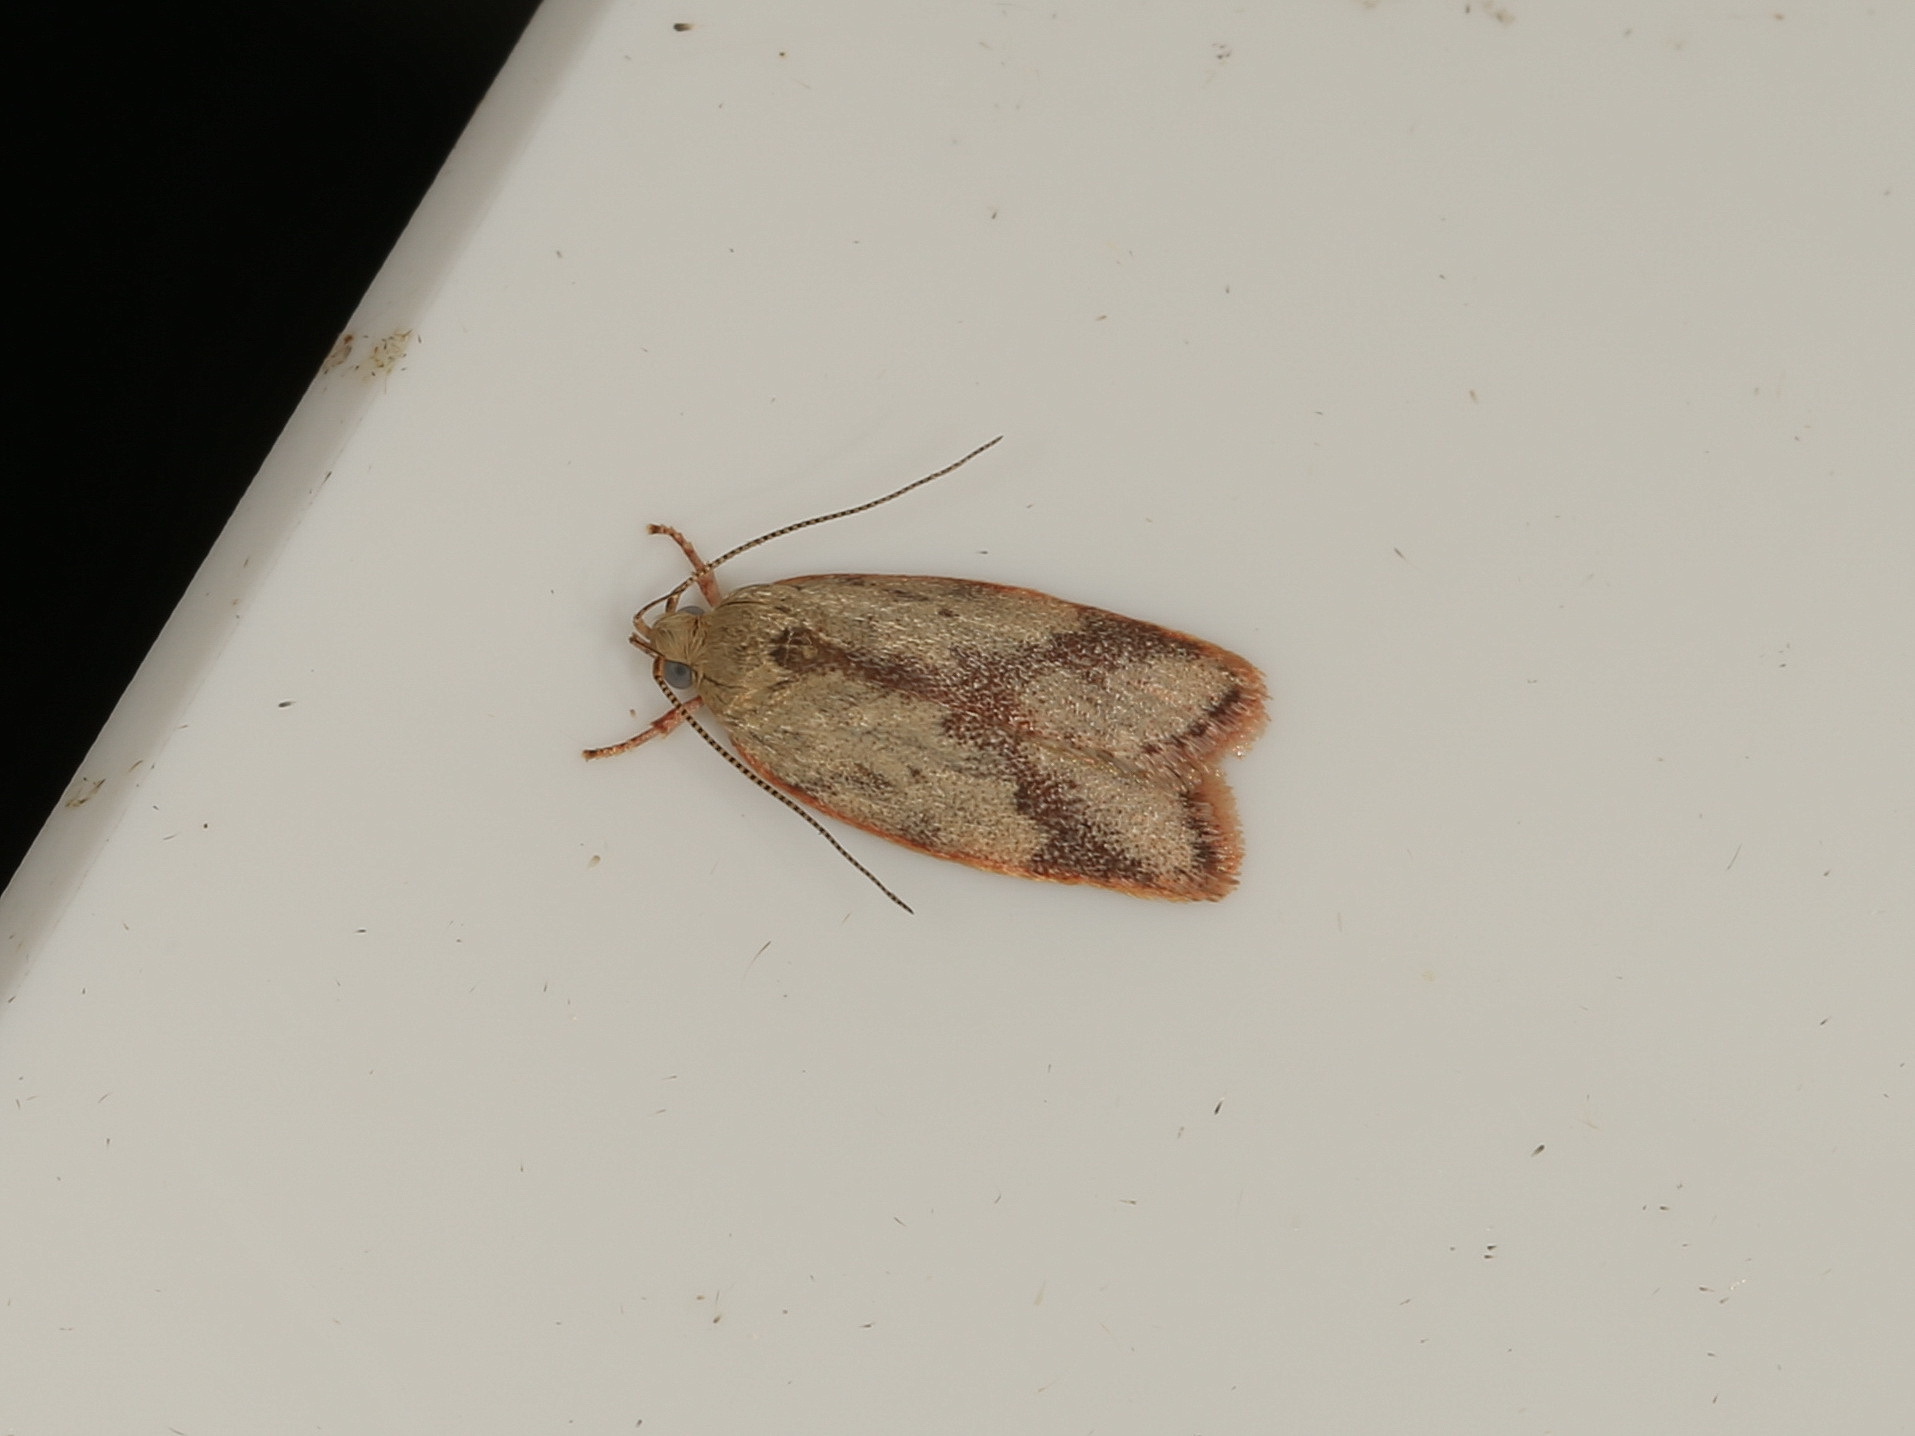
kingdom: Animalia
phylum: Arthropoda
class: Insecta
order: Lepidoptera
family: Oecophoridae
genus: Garrha
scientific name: Garrha phoenopis
